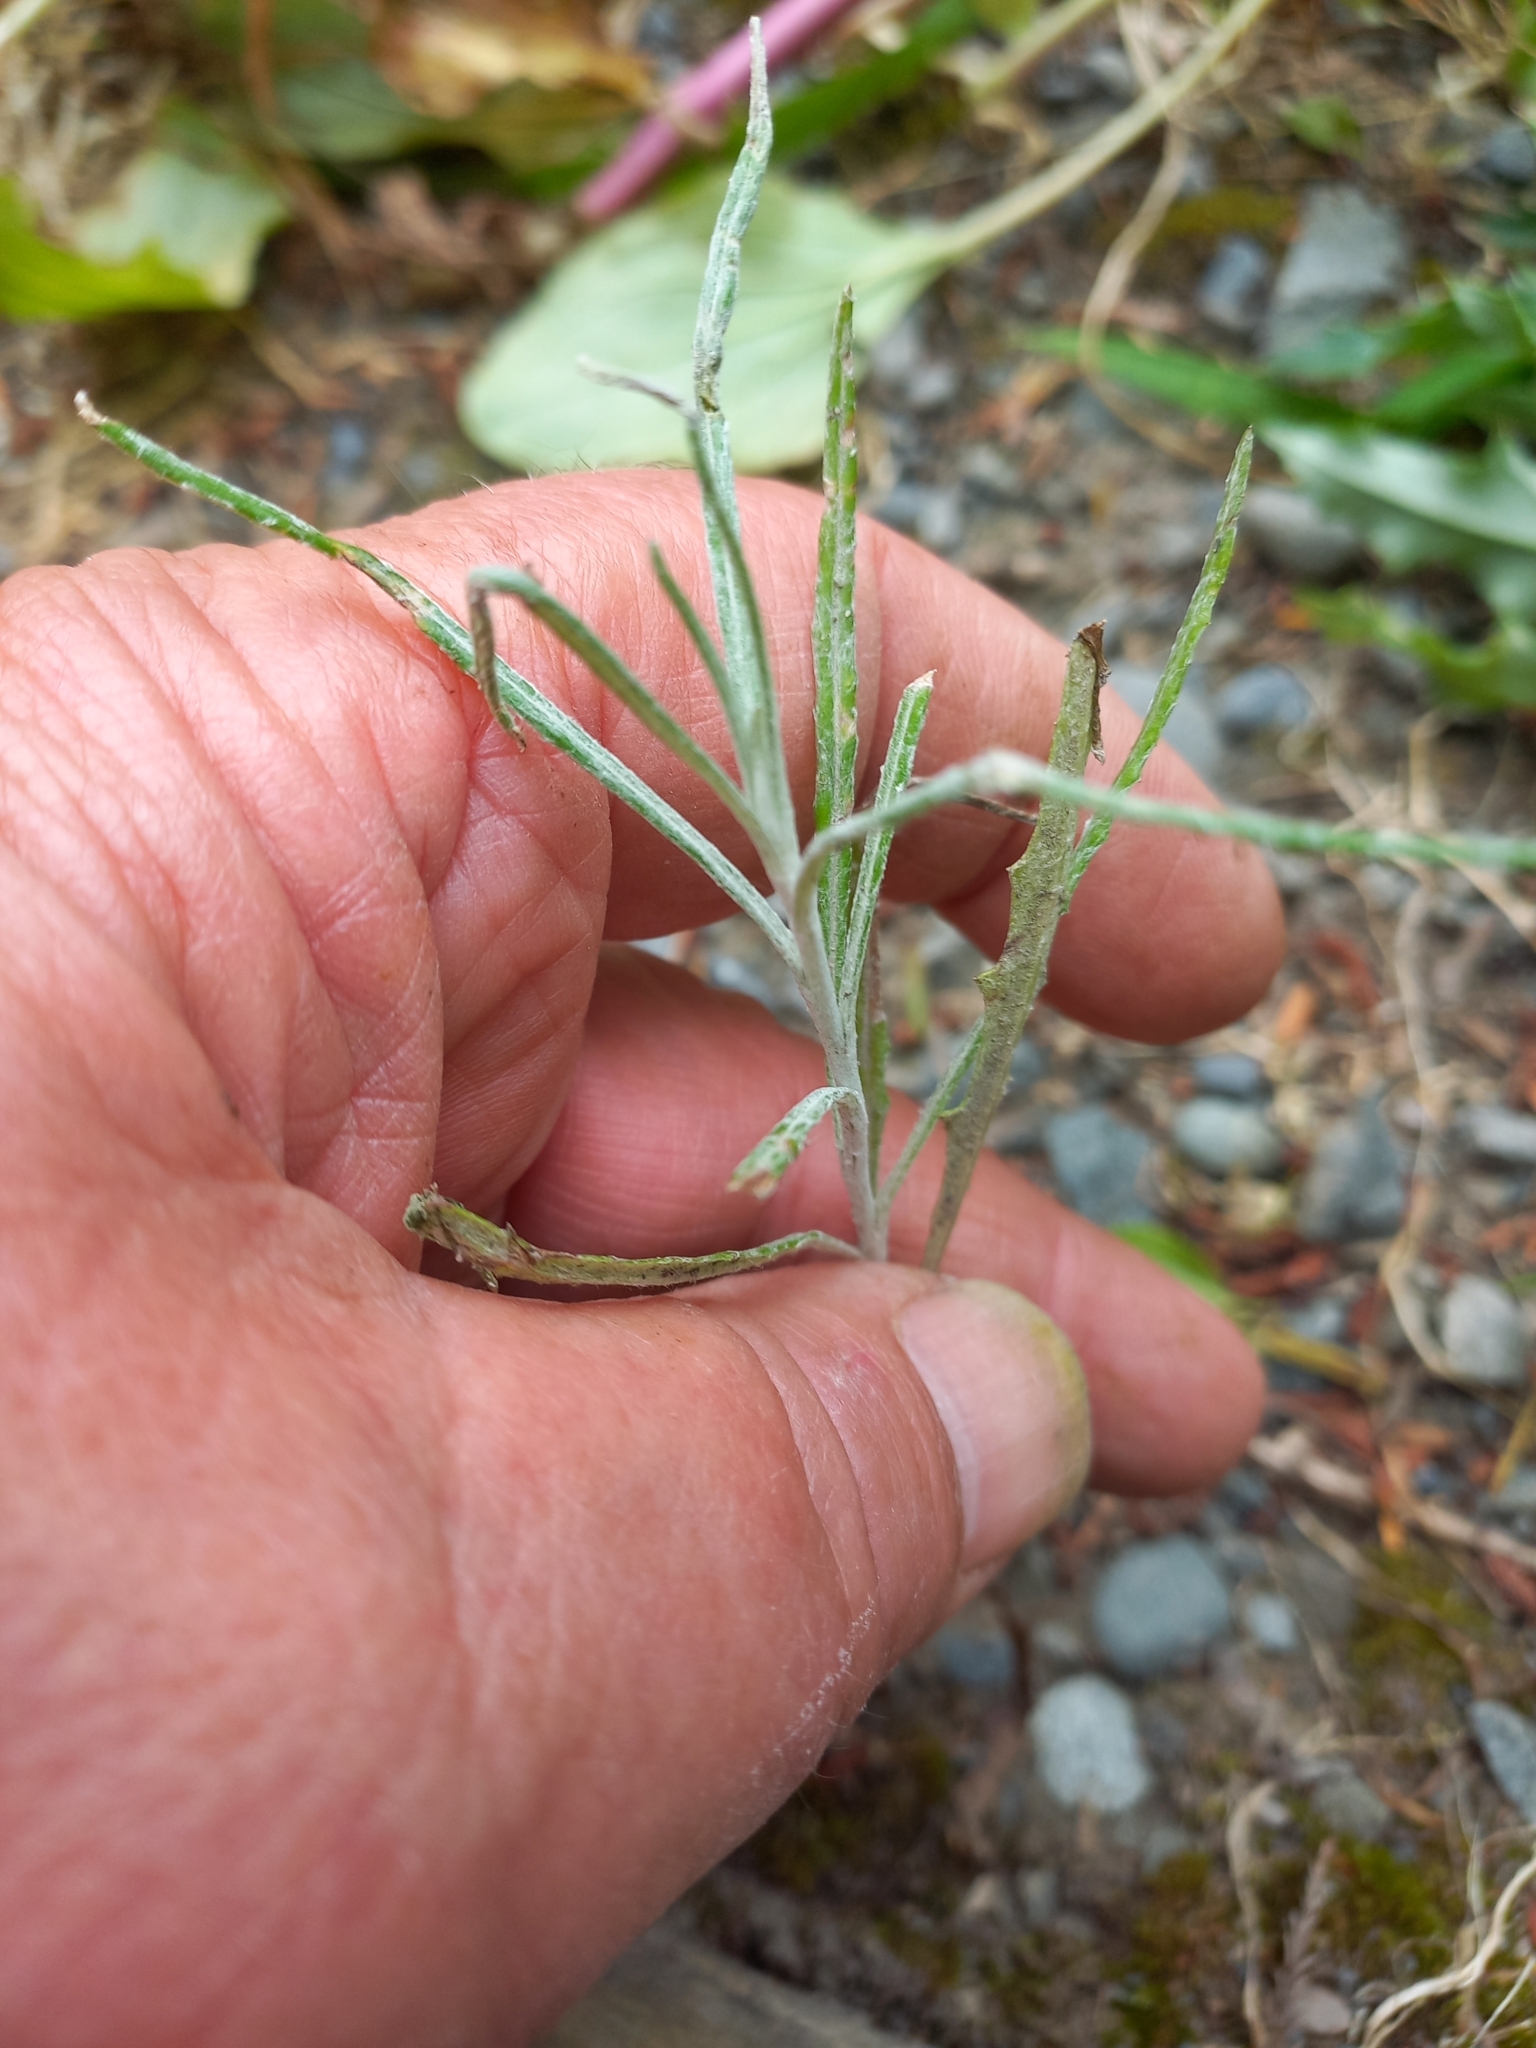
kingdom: Plantae
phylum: Tracheophyta
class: Magnoliopsida
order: Asterales
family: Asteraceae
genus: Senecio
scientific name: Senecio quadridentatus
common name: Cotton fireweed
